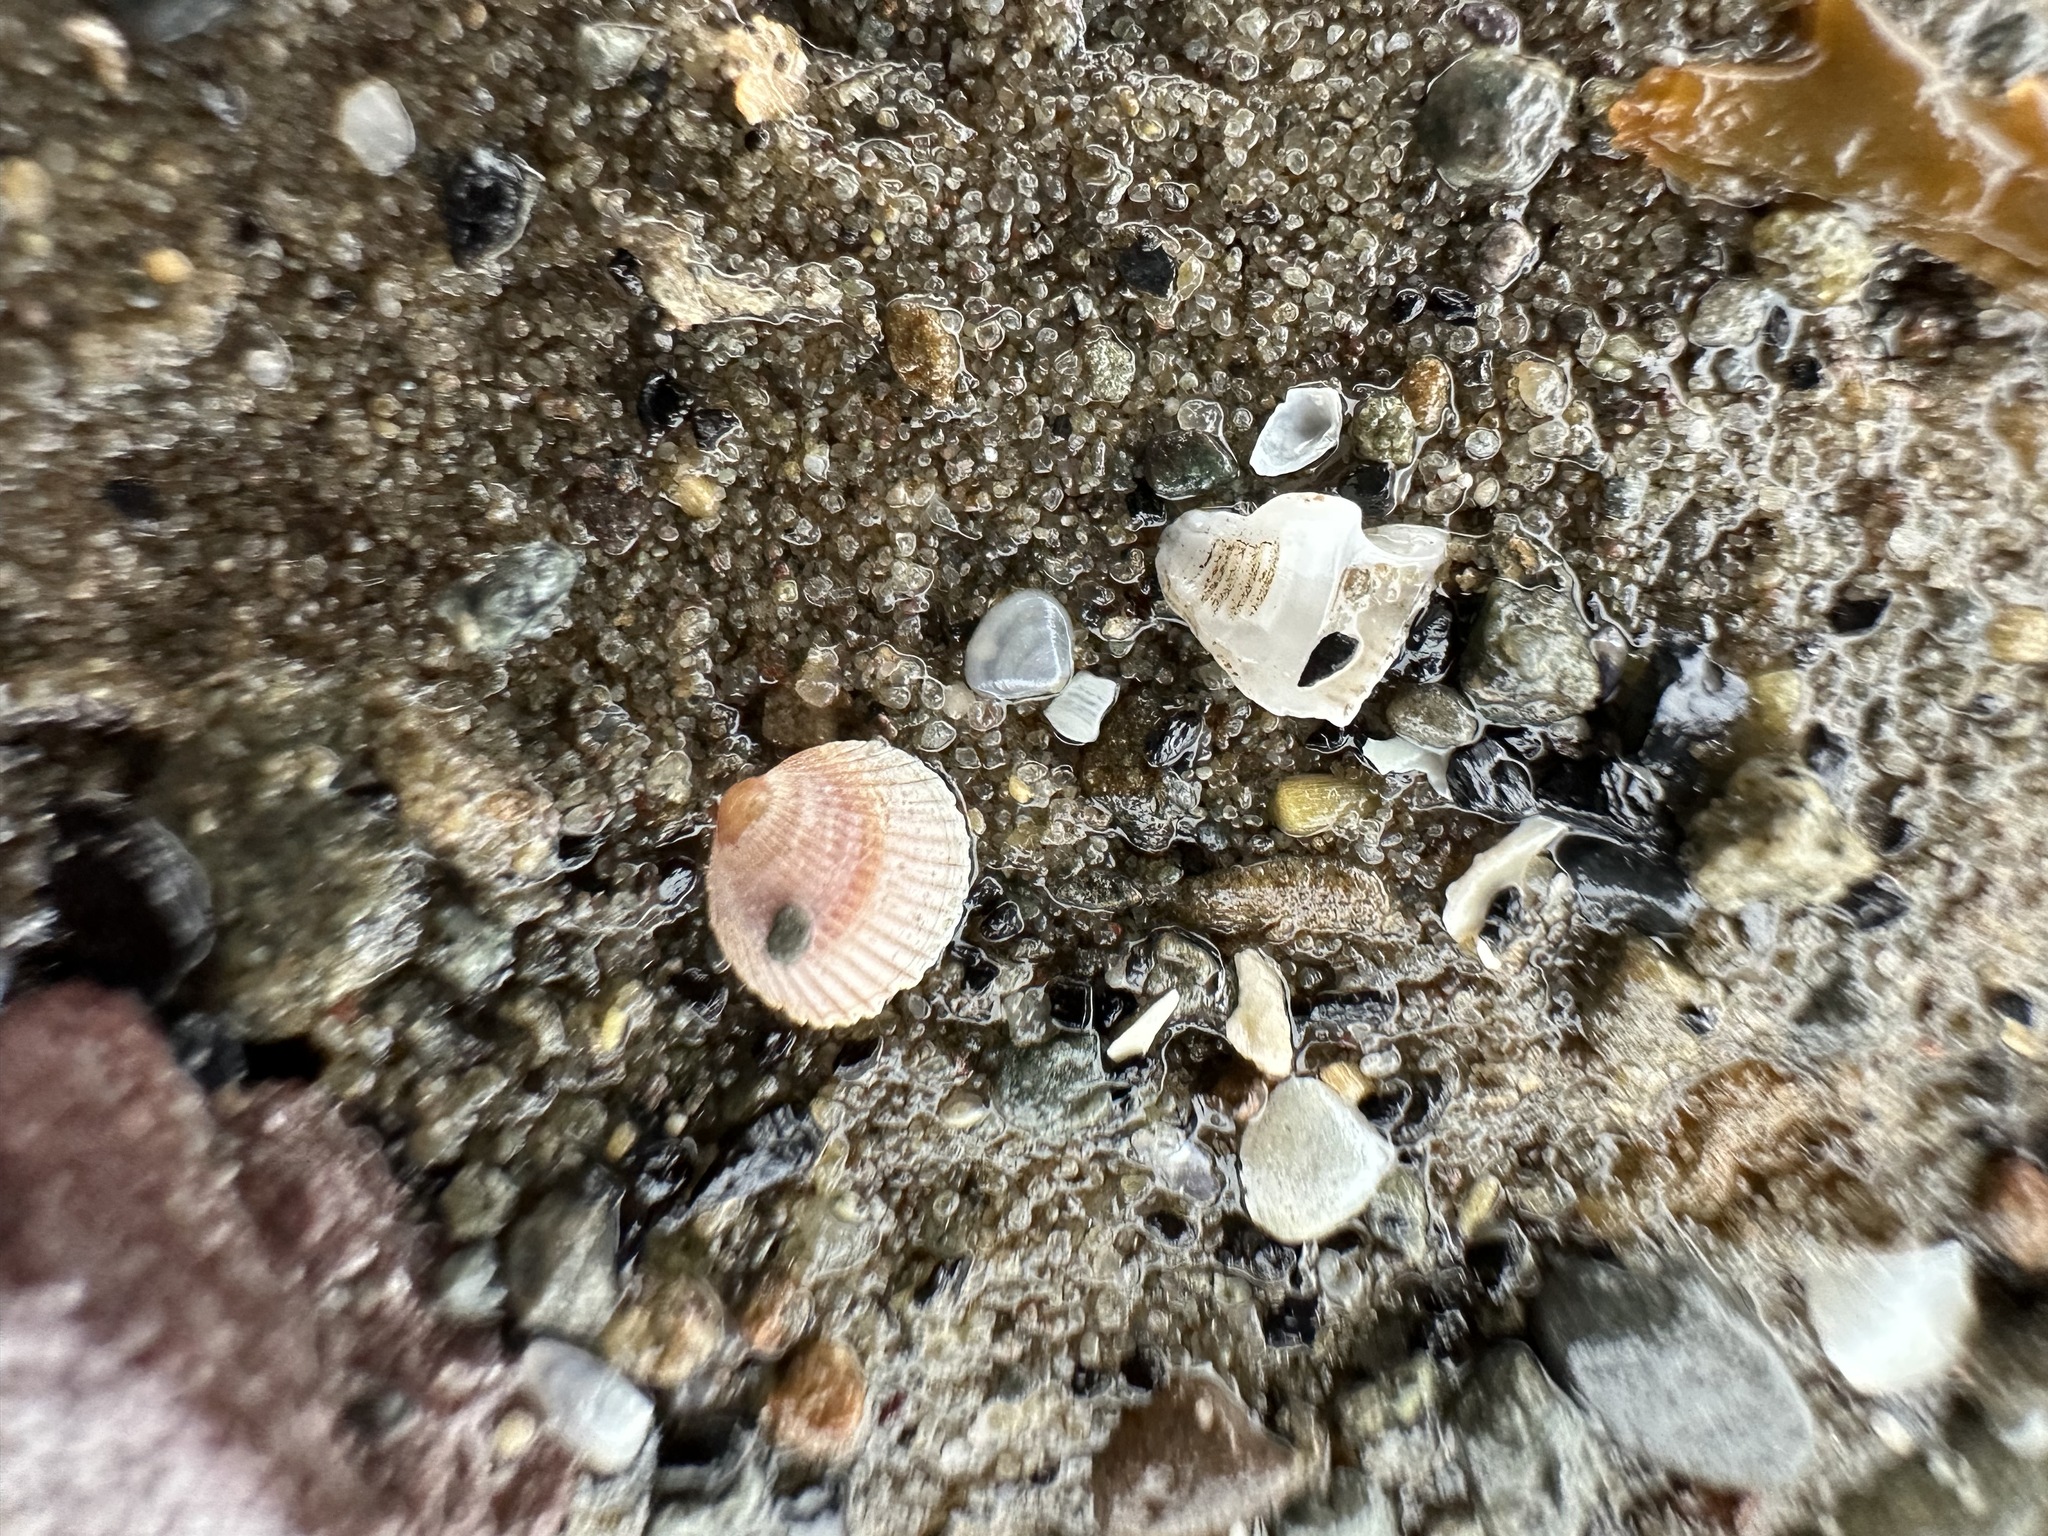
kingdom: Animalia
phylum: Mollusca
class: Bivalvia
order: Cardiida
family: Cardiidae
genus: Parvicardium
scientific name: Parvicardium pinnulatum
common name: Oval cockle
